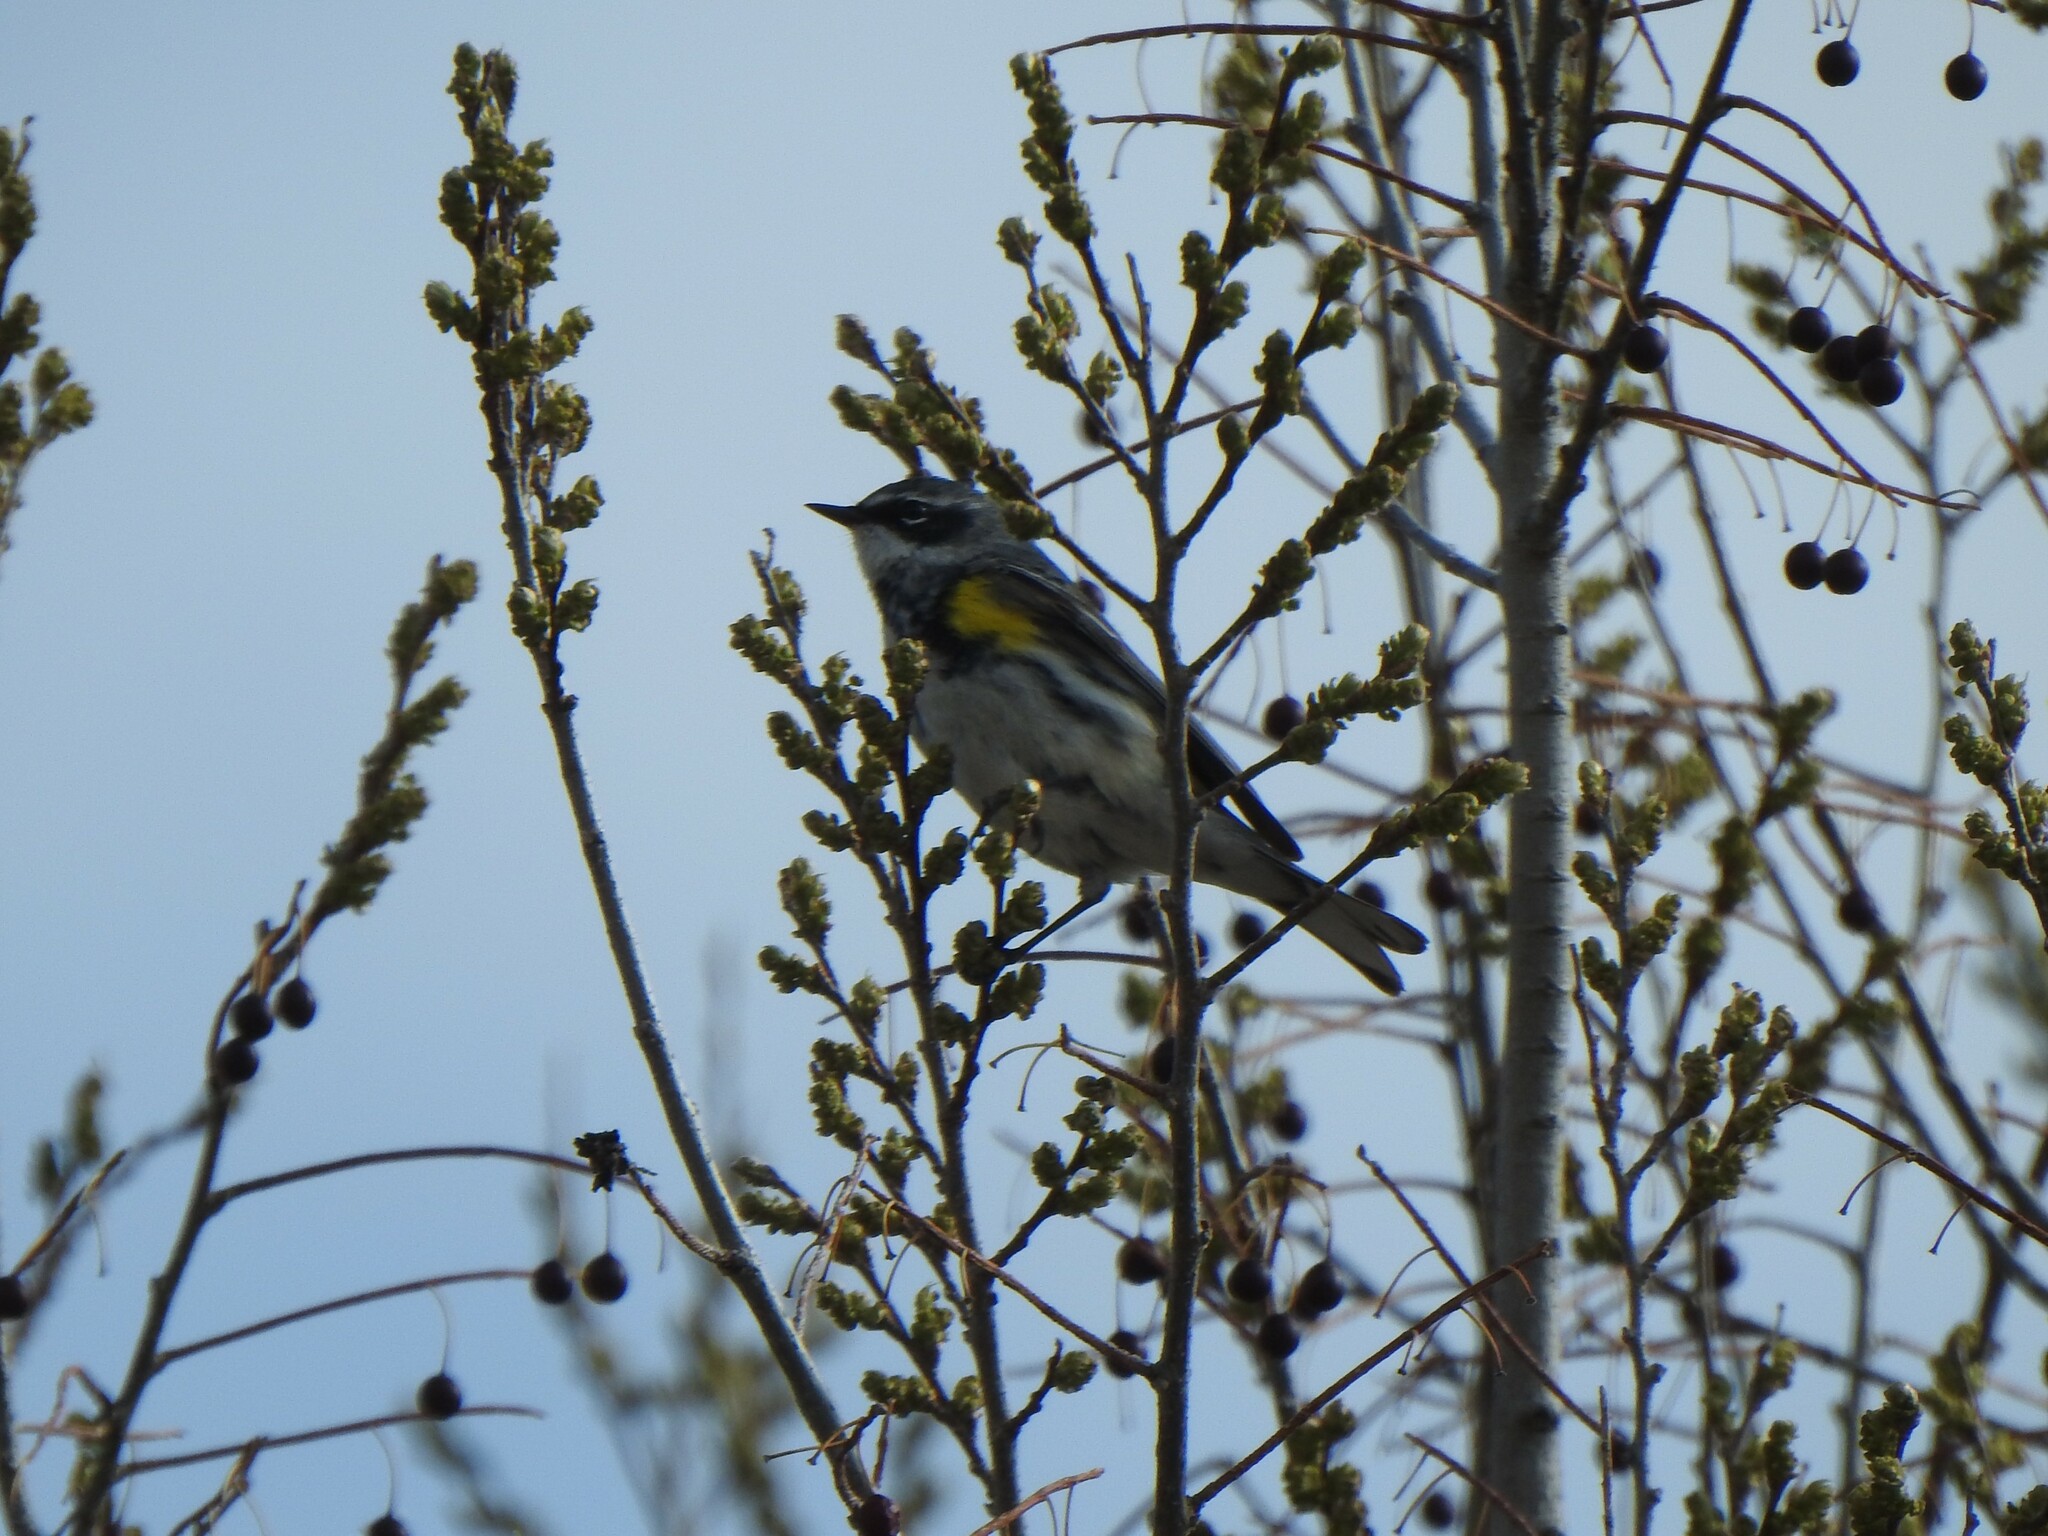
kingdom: Animalia
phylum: Chordata
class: Aves
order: Passeriformes
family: Parulidae
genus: Setophaga
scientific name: Setophaga coronata
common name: Myrtle warbler
